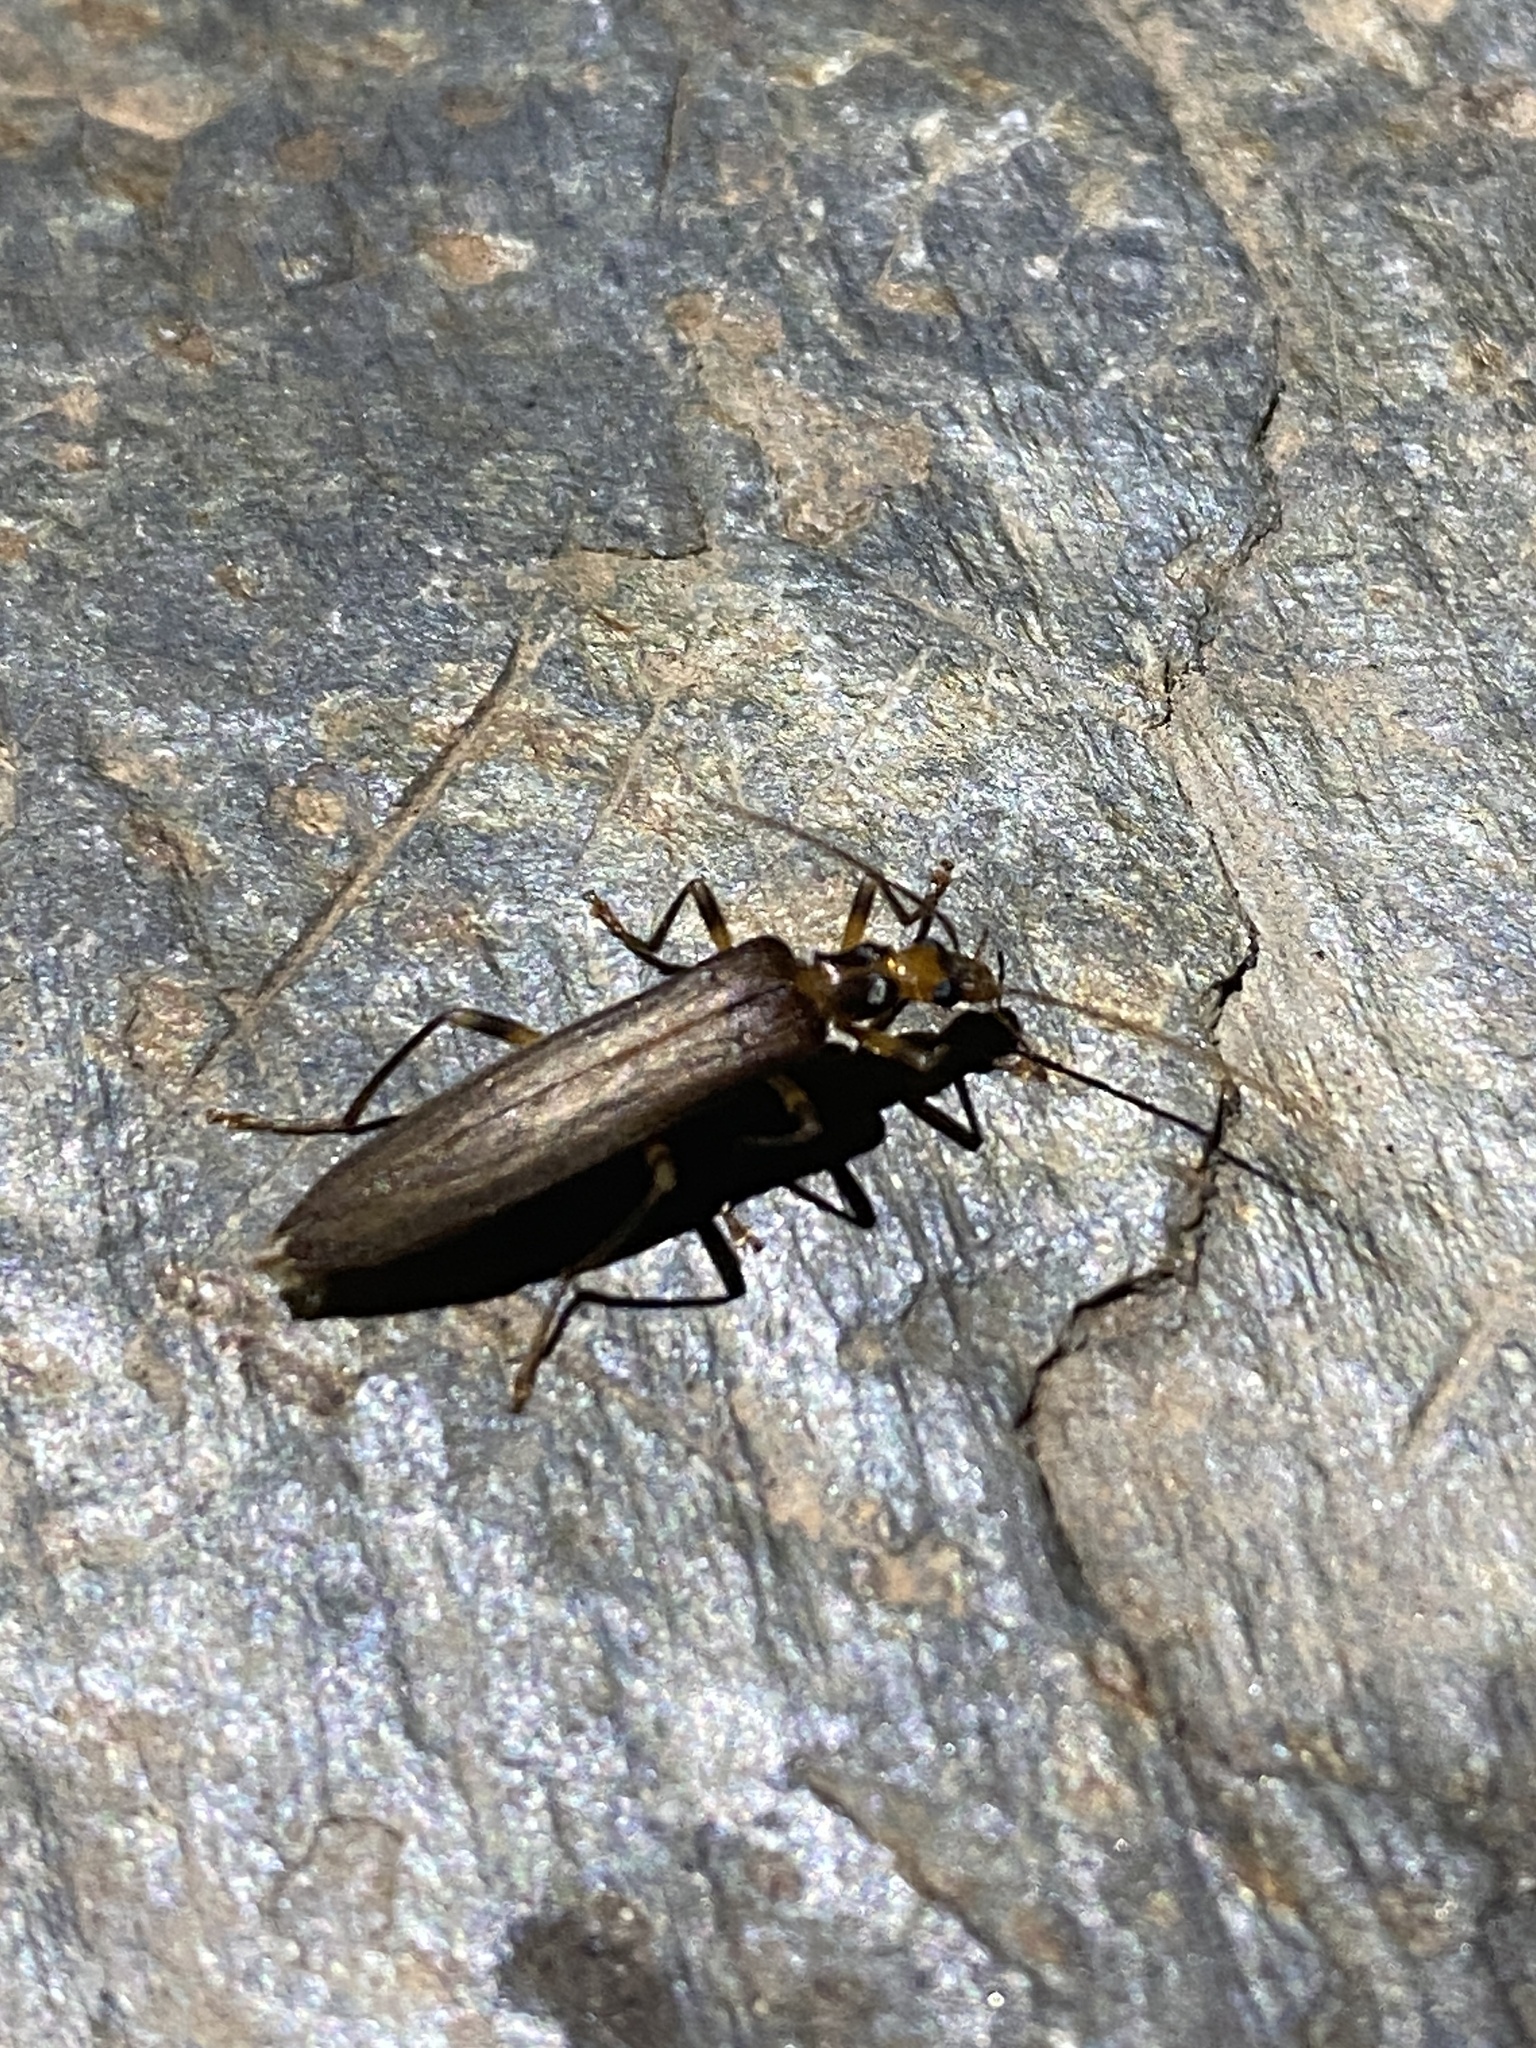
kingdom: Animalia
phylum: Arthropoda
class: Insecta
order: Coleoptera
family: Oedemeridae
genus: Oedemera
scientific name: Oedemera femoralis
